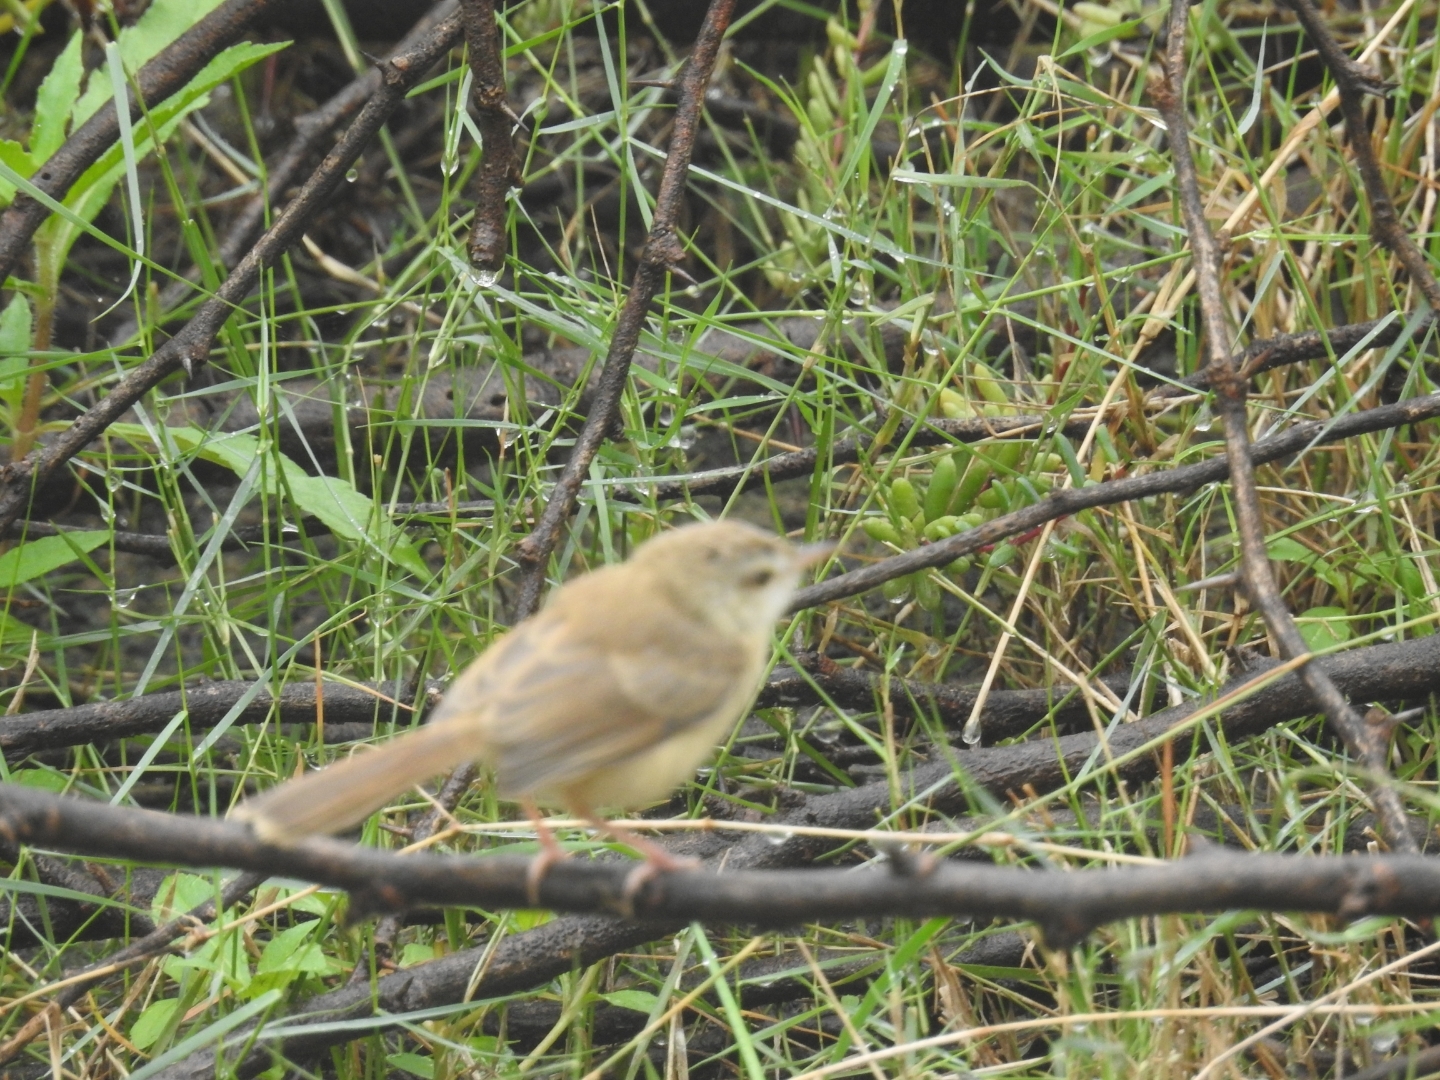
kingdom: Animalia
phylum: Chordata
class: Aves
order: Passeriformes
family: Cisticolidae
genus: Prinia
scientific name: Prinia inornata
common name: Plain prinia
